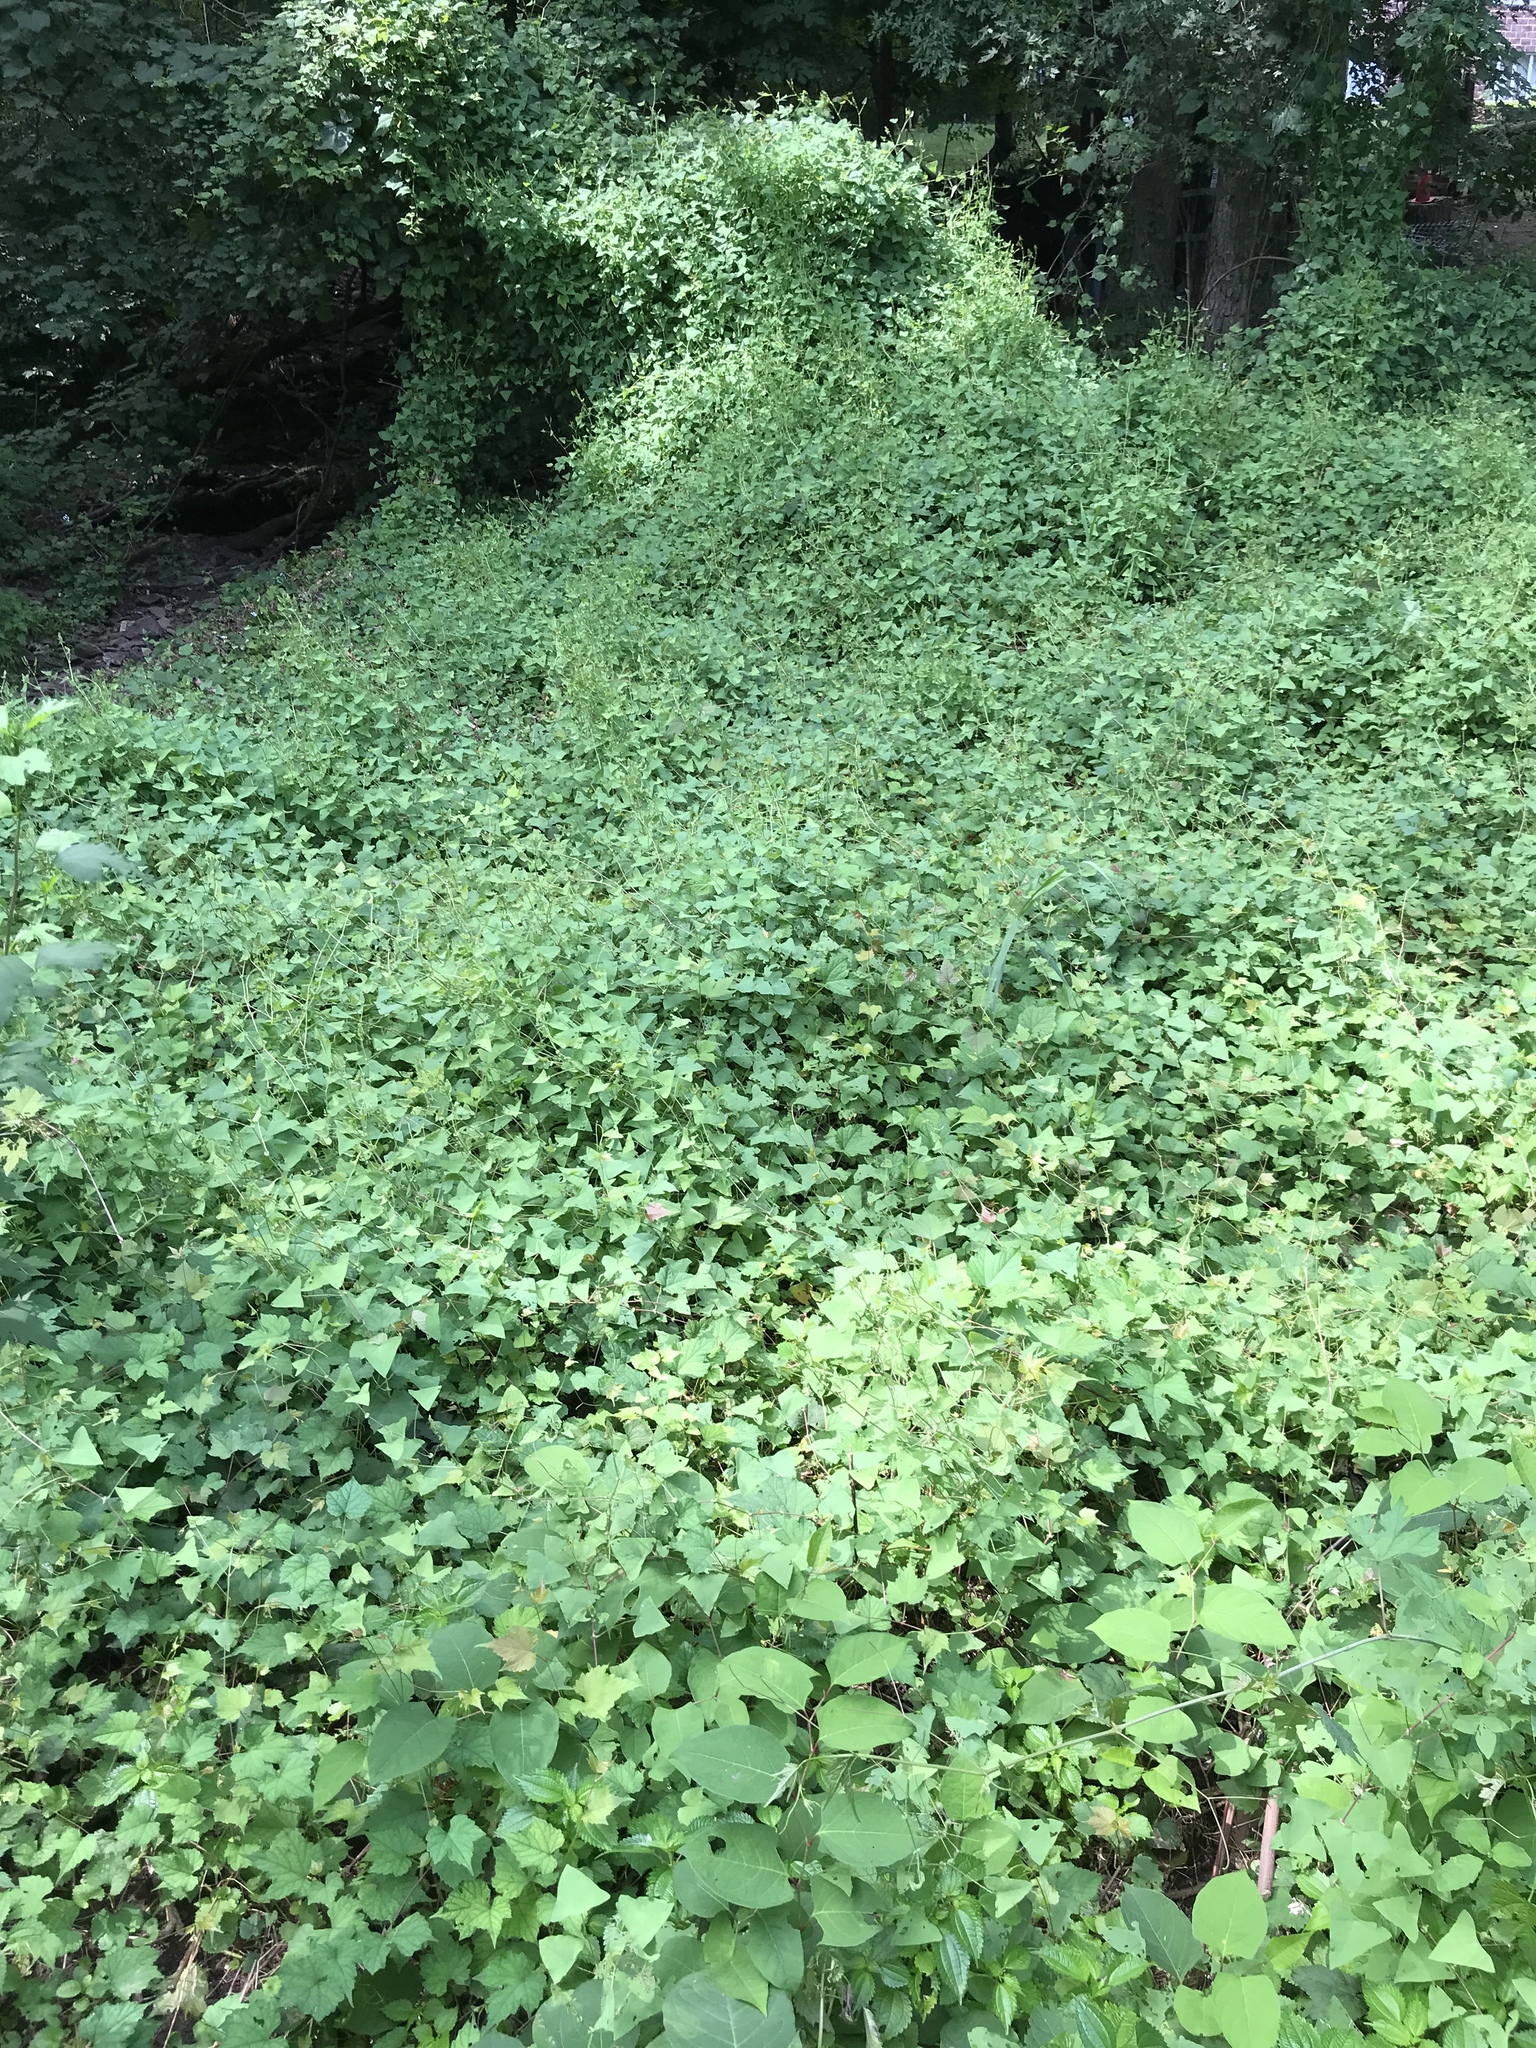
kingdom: Plantae
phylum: Tracheophyta
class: Magnoliopsida
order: Caryophyllales
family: Polygonaceae
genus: Persicaria
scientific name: Persicaria perfoliata
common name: Asiatic tearthumb
